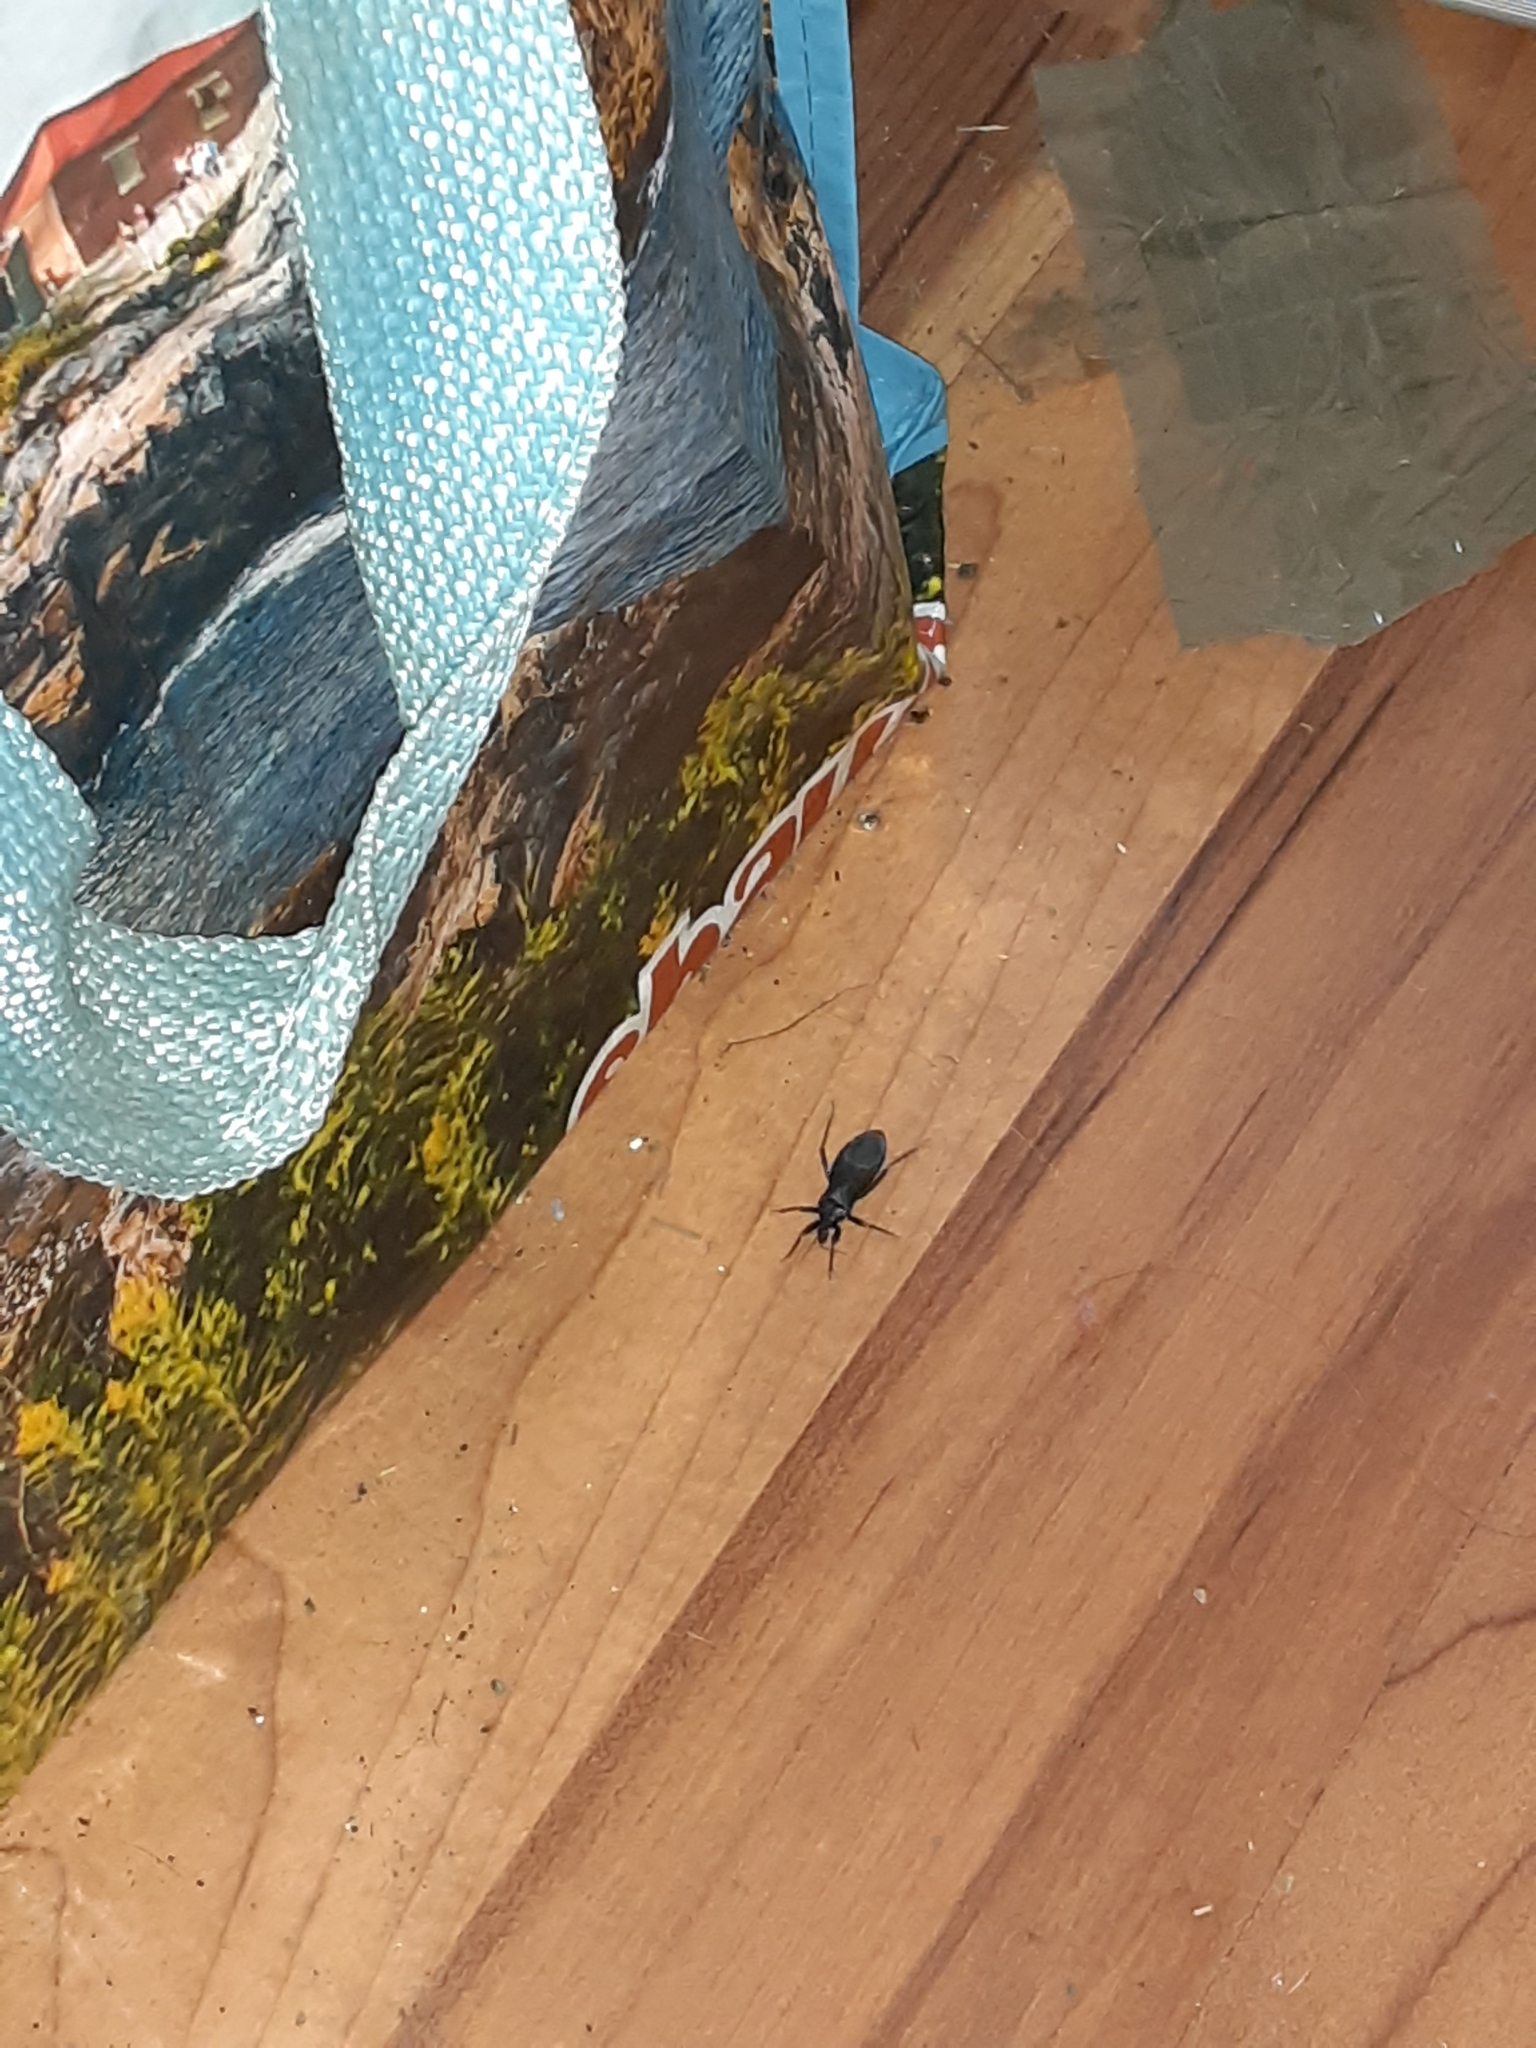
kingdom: Animalia
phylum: Arthropoda
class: Insecta
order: Hemiptera
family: Reduviidae
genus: Reduvius
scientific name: Reduvius personatus
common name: Masked hunter
